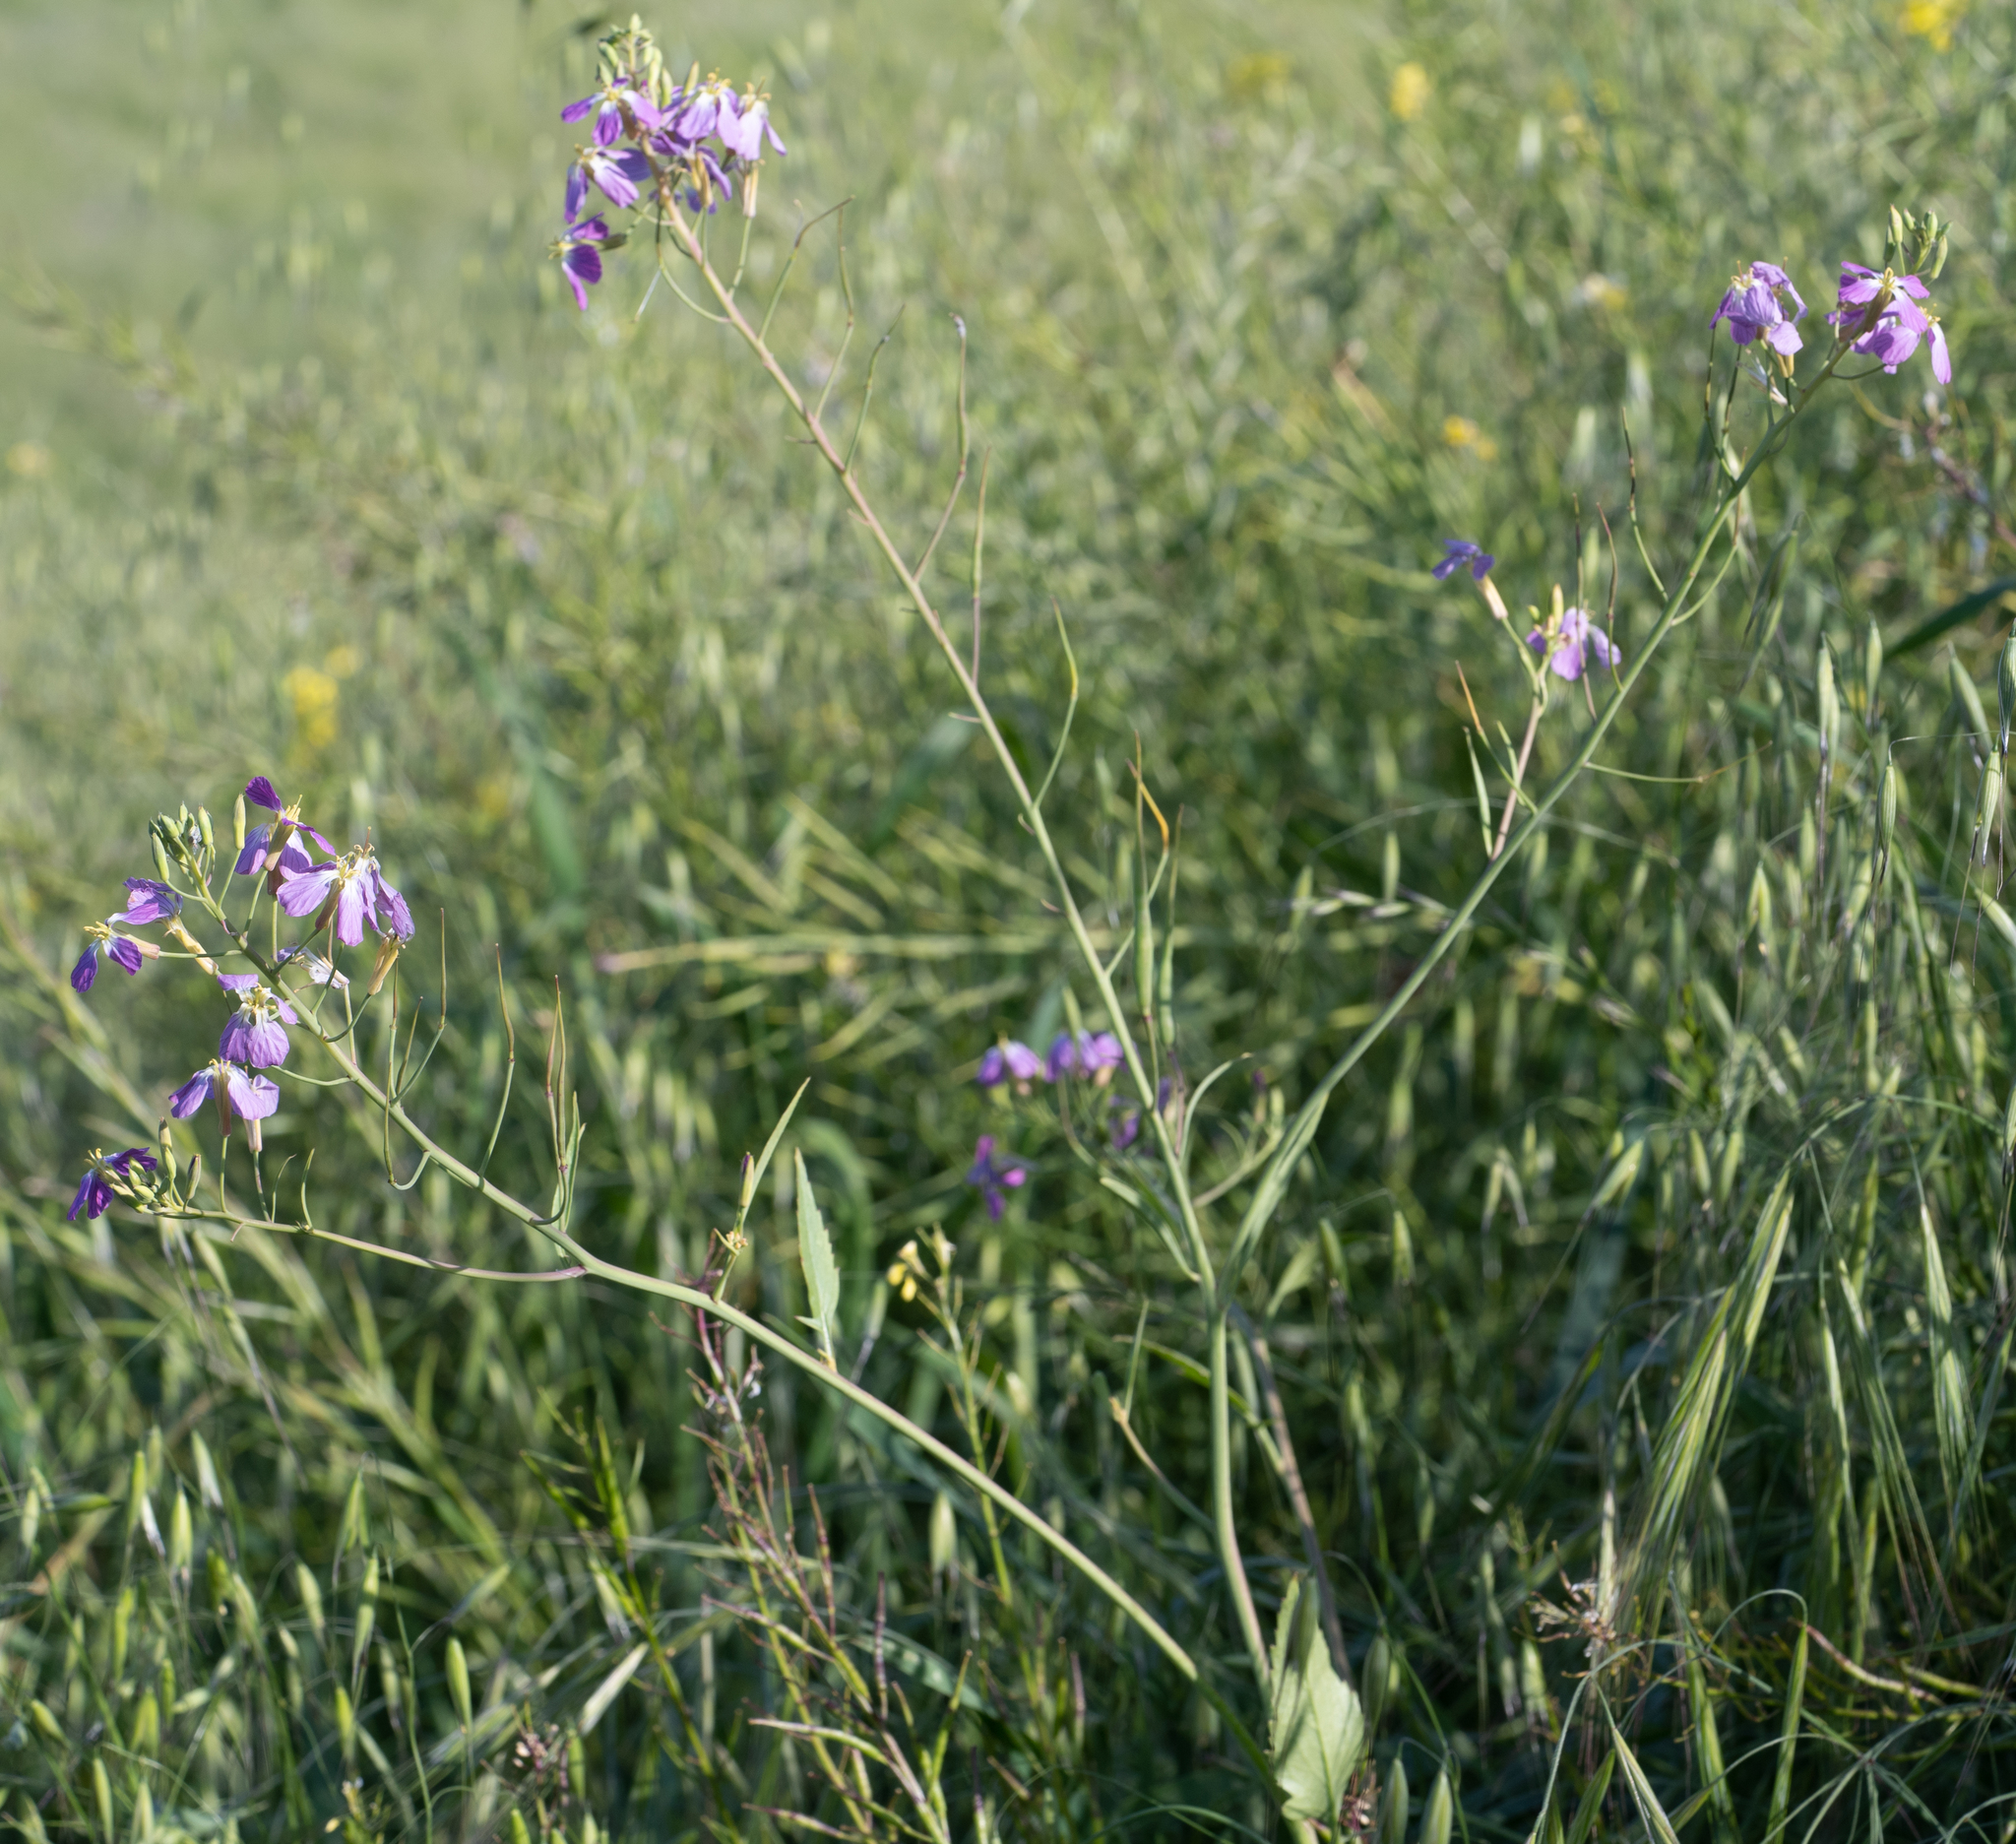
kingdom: Plantae
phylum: Tracheophyta
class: Magnoliopsida
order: Brassicales
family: Brassicaceae
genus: Raphanus
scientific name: Raphanus sativus
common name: Cultivated radish
